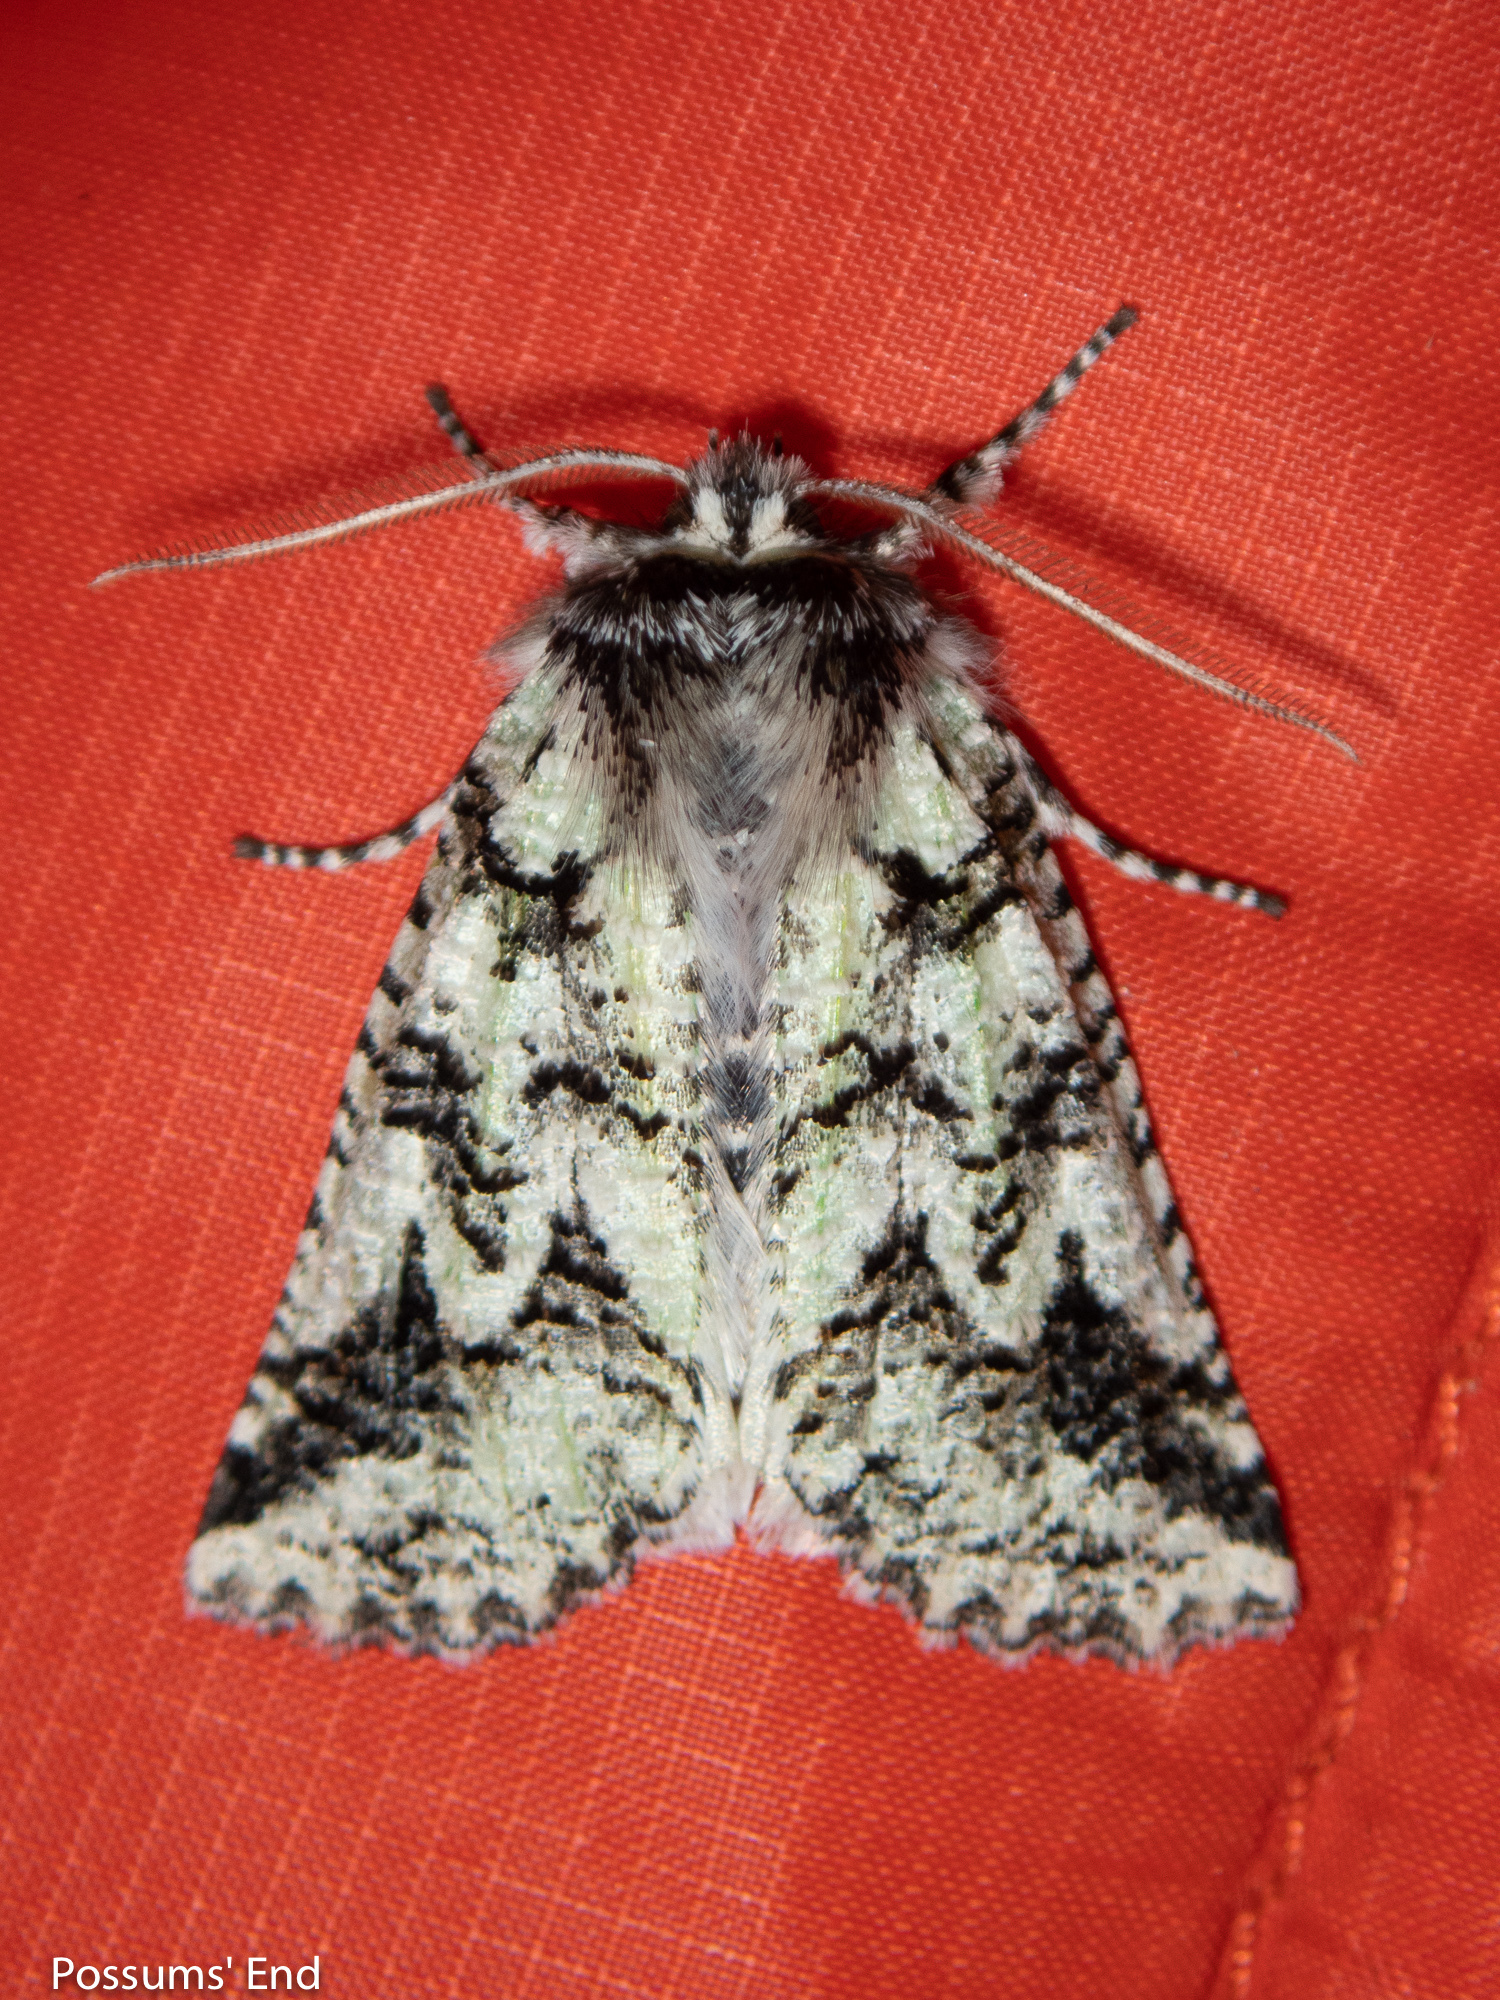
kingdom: Animalia
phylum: Arthropoda
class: Insecta
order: Lepidoptera
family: Geometridae
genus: Declana
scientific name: Declana floccosa
